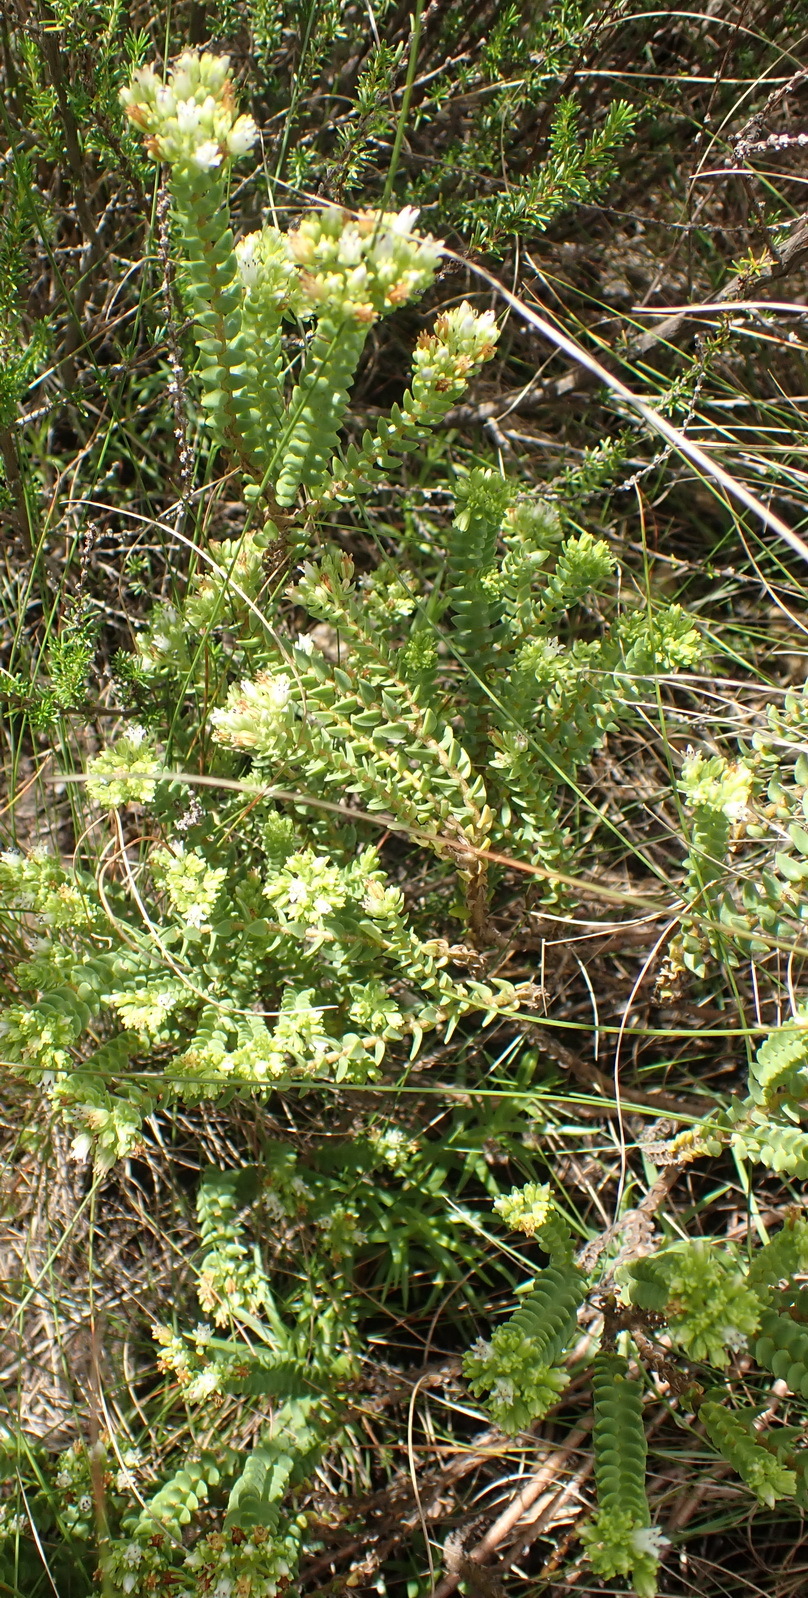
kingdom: Plantae
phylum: Tracheophyta
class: Magnoliopsida
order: Saxifragales
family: Crassulaceae
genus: Crassula
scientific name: Crassula ericoides
